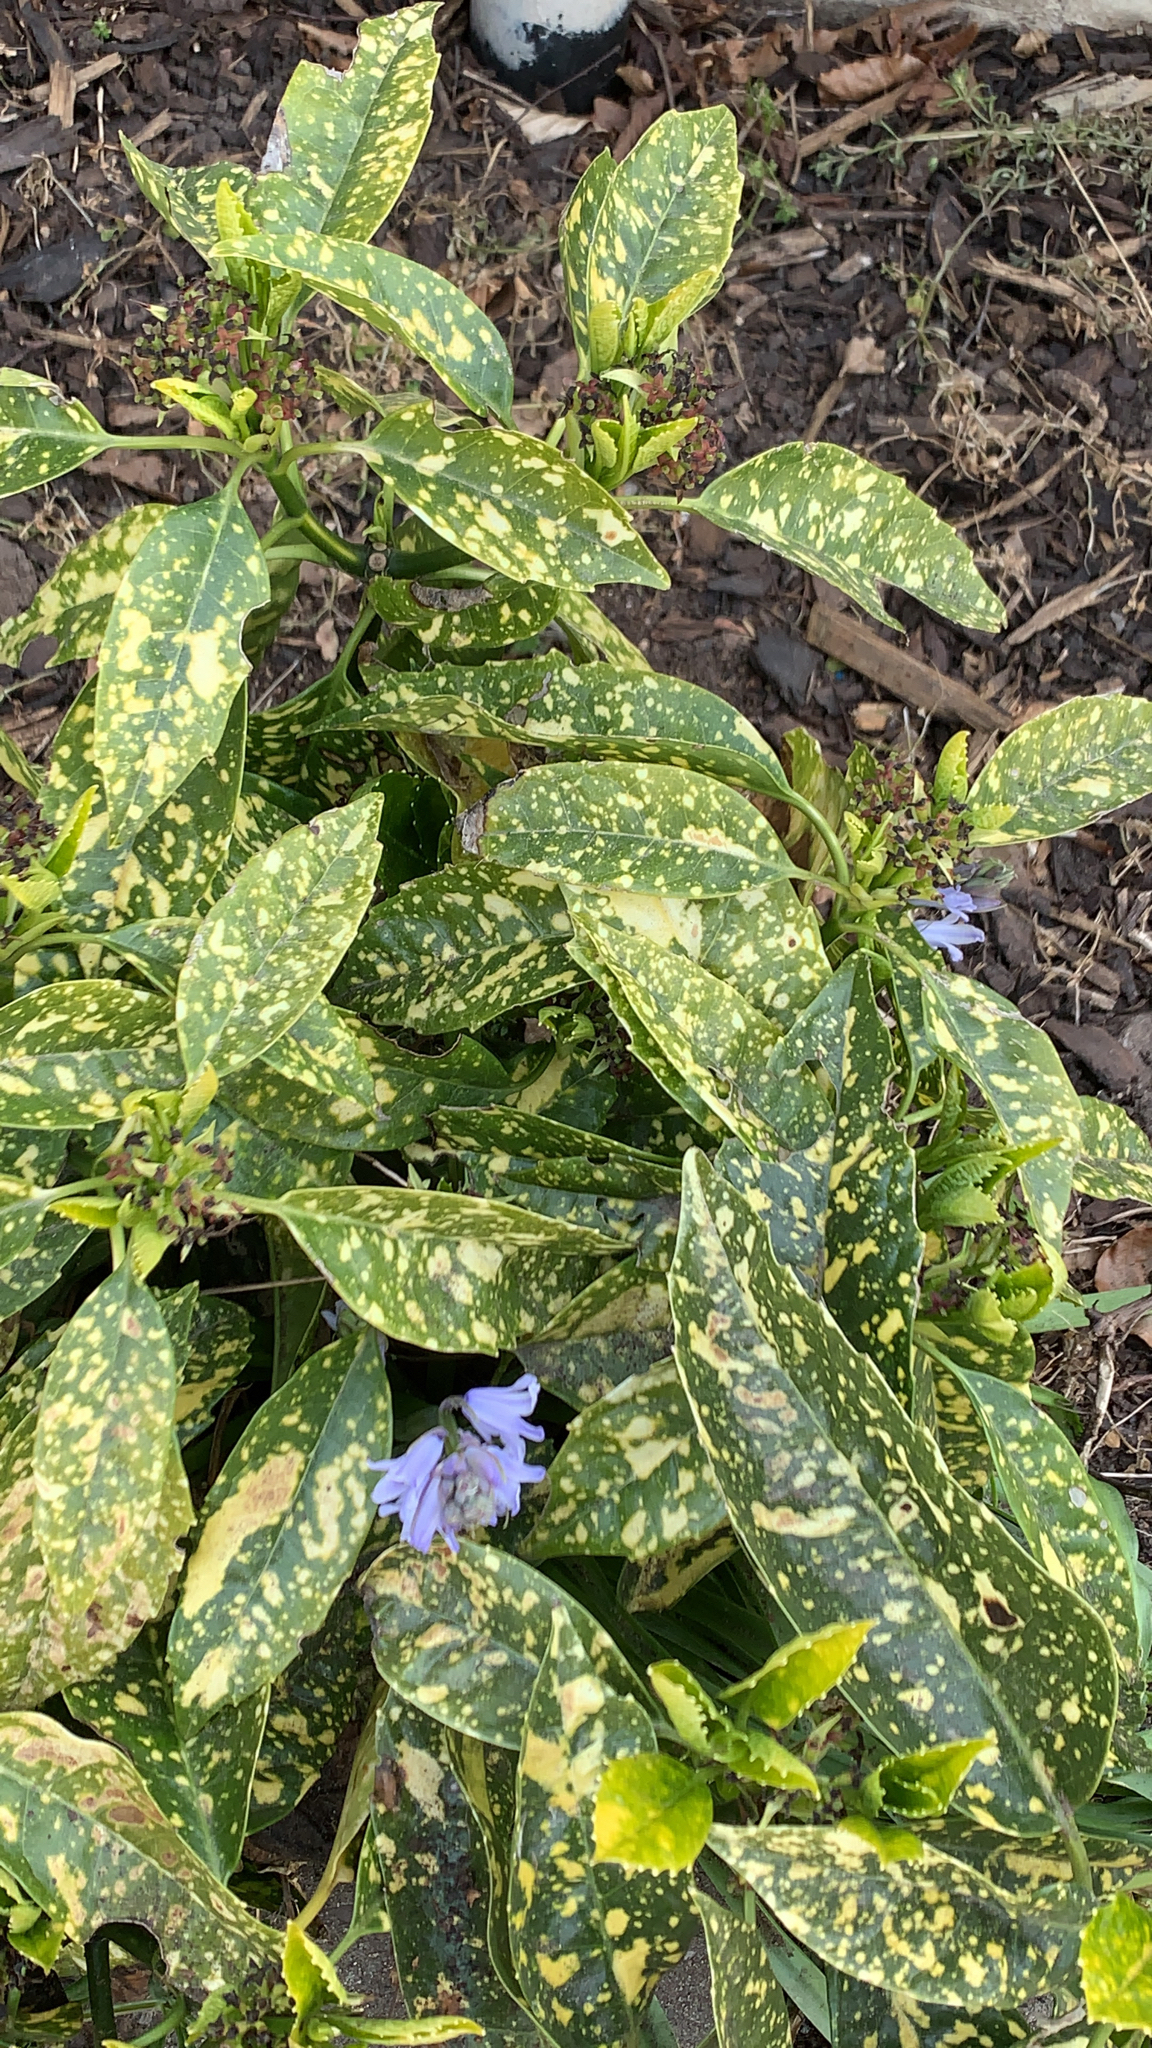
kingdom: Plantae
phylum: Tracheophyta
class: Magnoliopsida
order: Garryales
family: Garryaceae
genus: Aucuba
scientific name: Aucuba japonica
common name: Spotted-laurel
